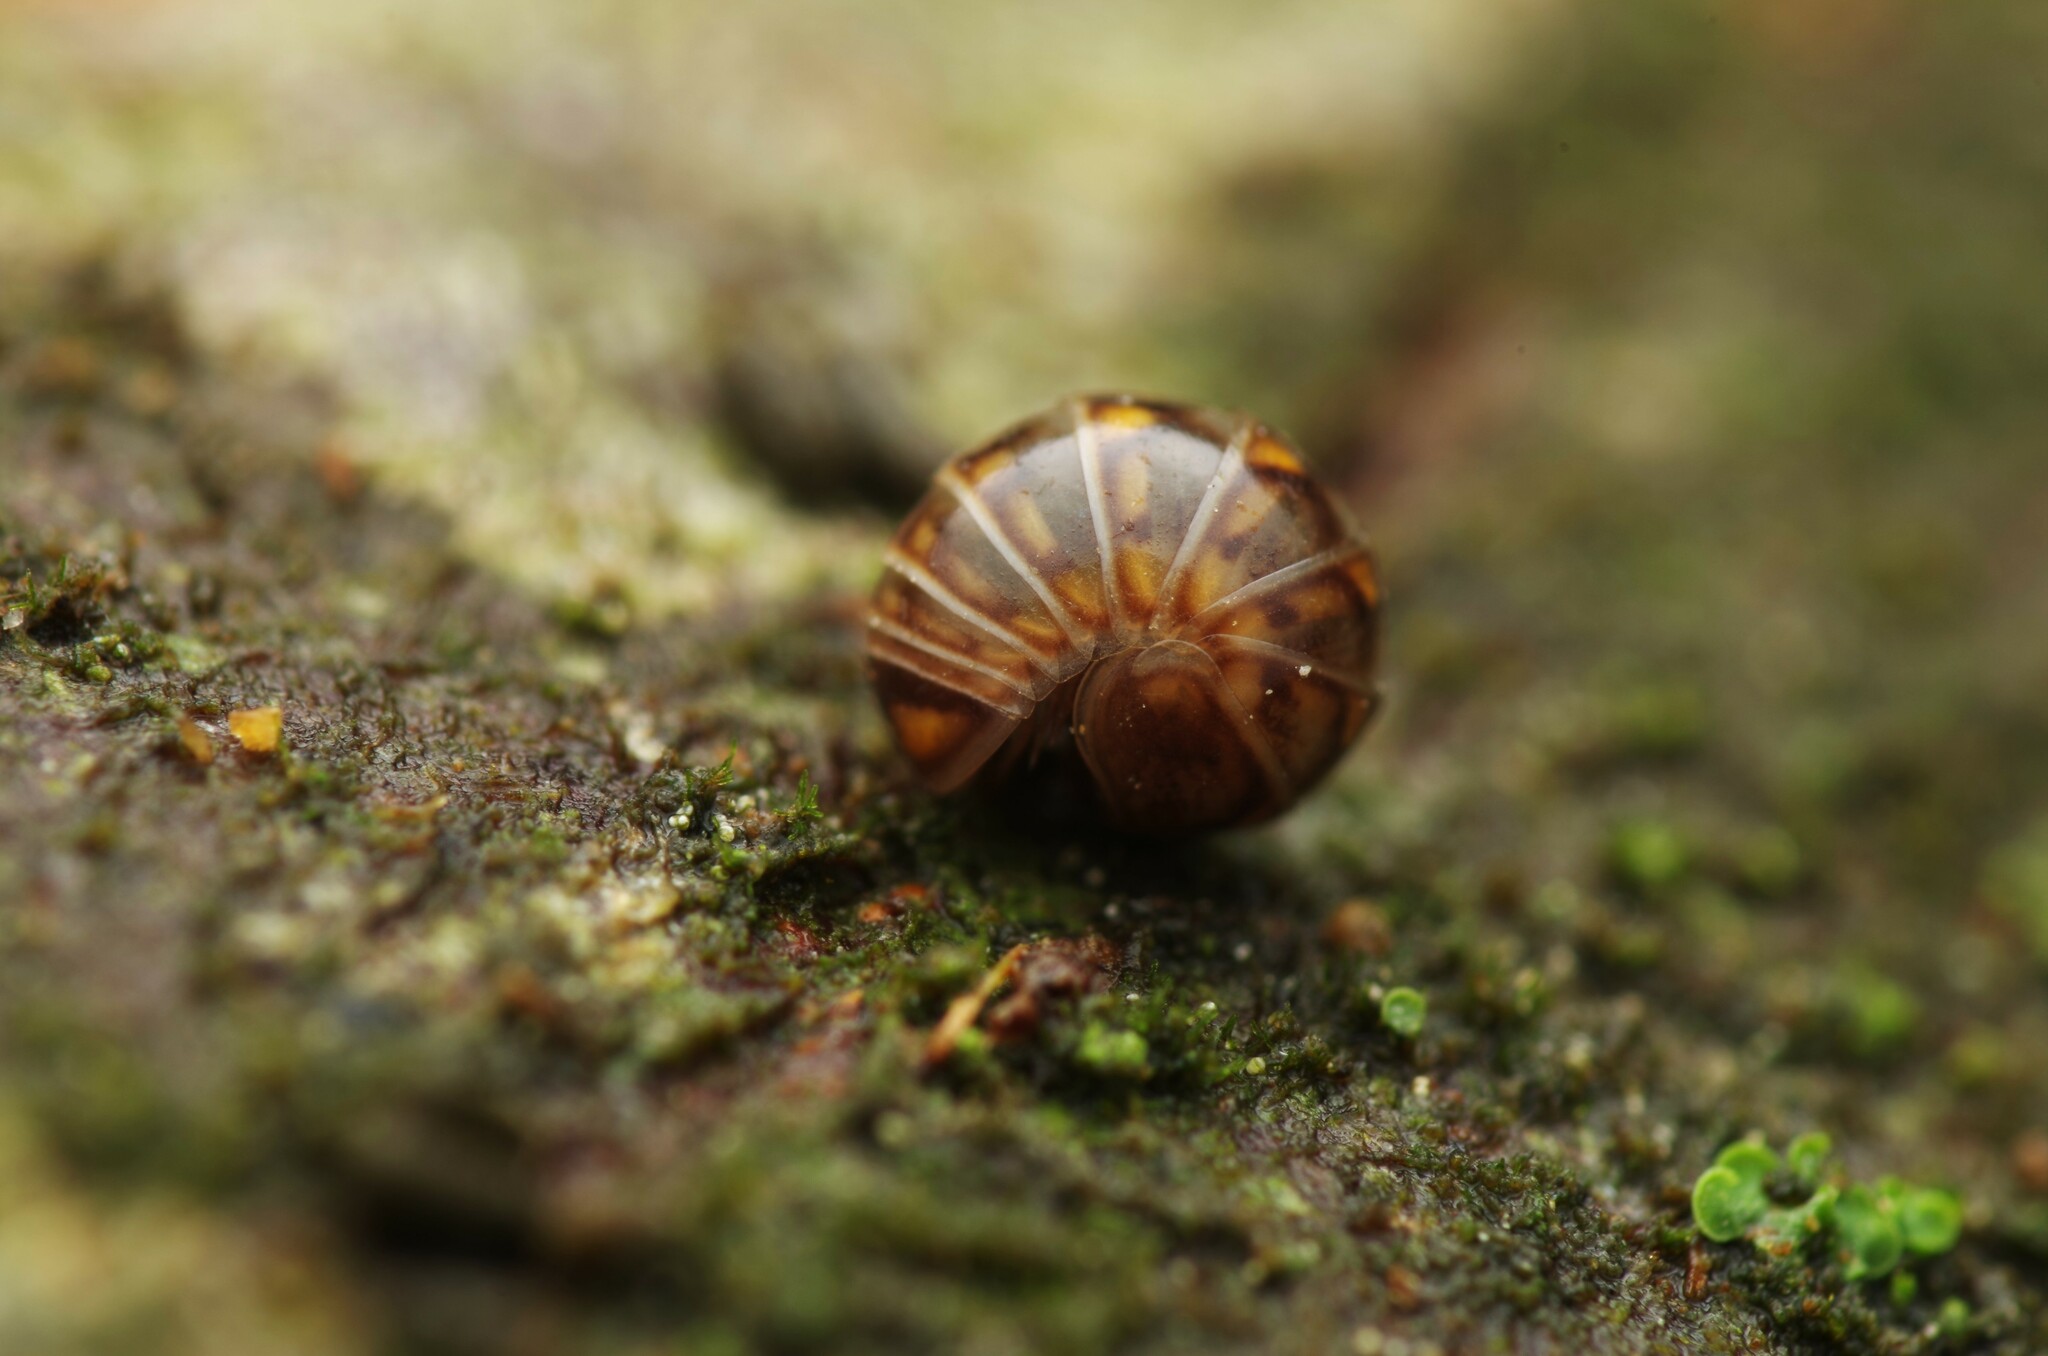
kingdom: Animalia
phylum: Arthropoda
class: Diplopoda
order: Glomerida
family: Glomeridae
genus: Glomeris
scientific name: Glomeris intermedia
